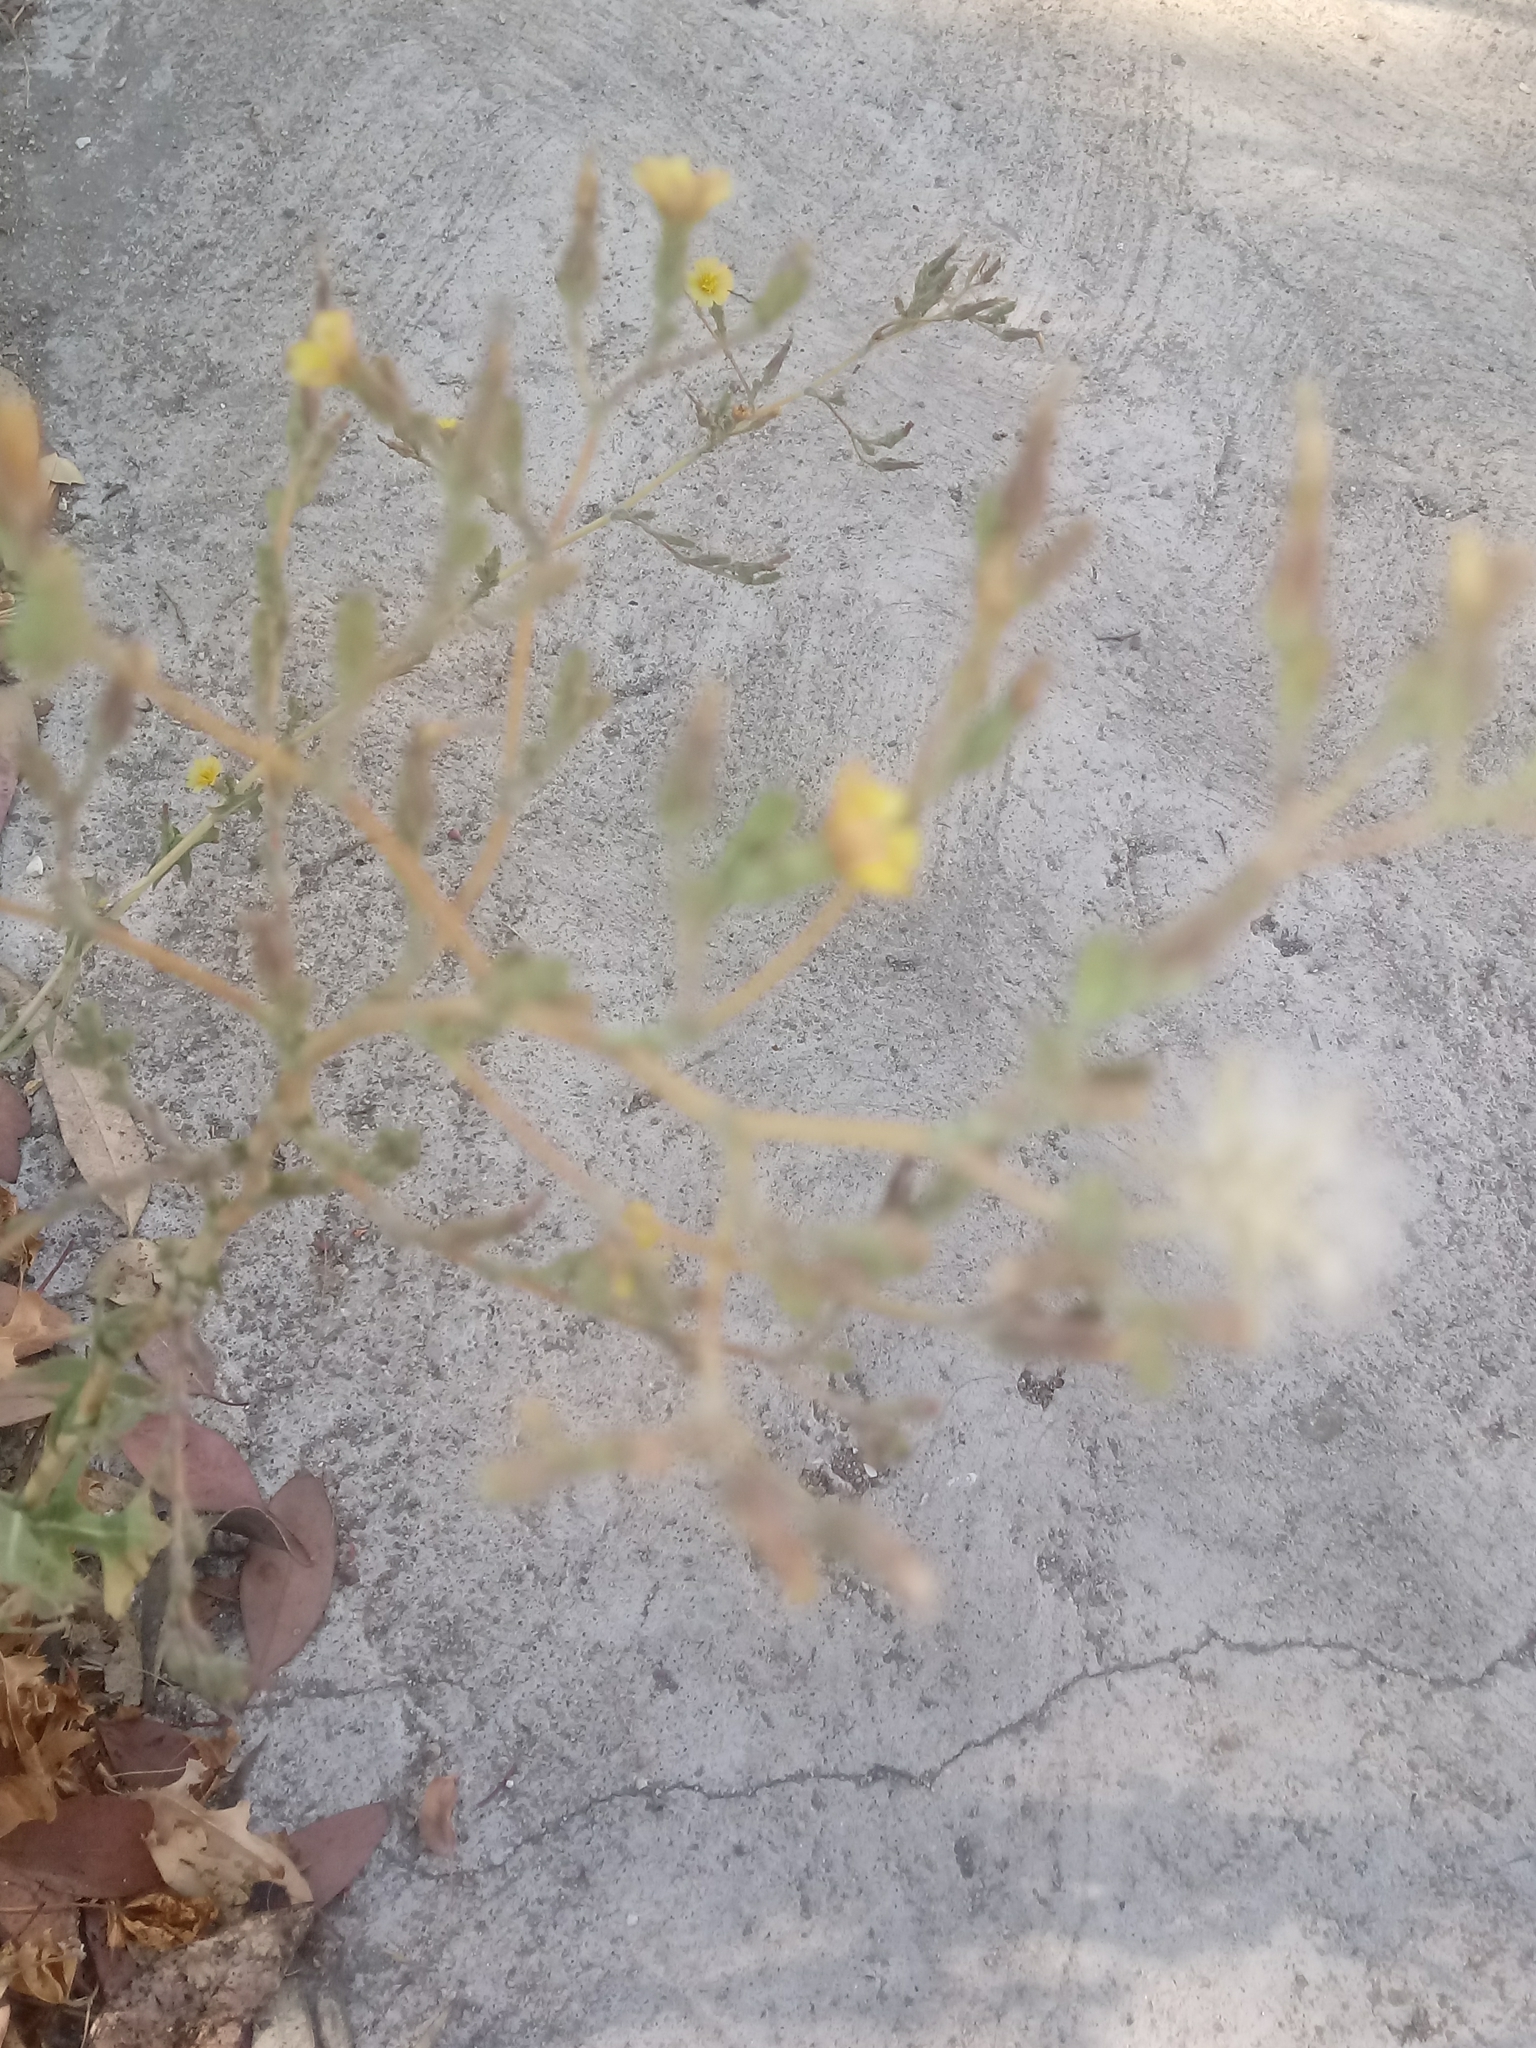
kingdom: Plantae
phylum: Tracheophyta
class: Magnoliopsida
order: Asterales
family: Asteraceae
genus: Lactuca
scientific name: Lactuca serriola
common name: Prickly lettuce
